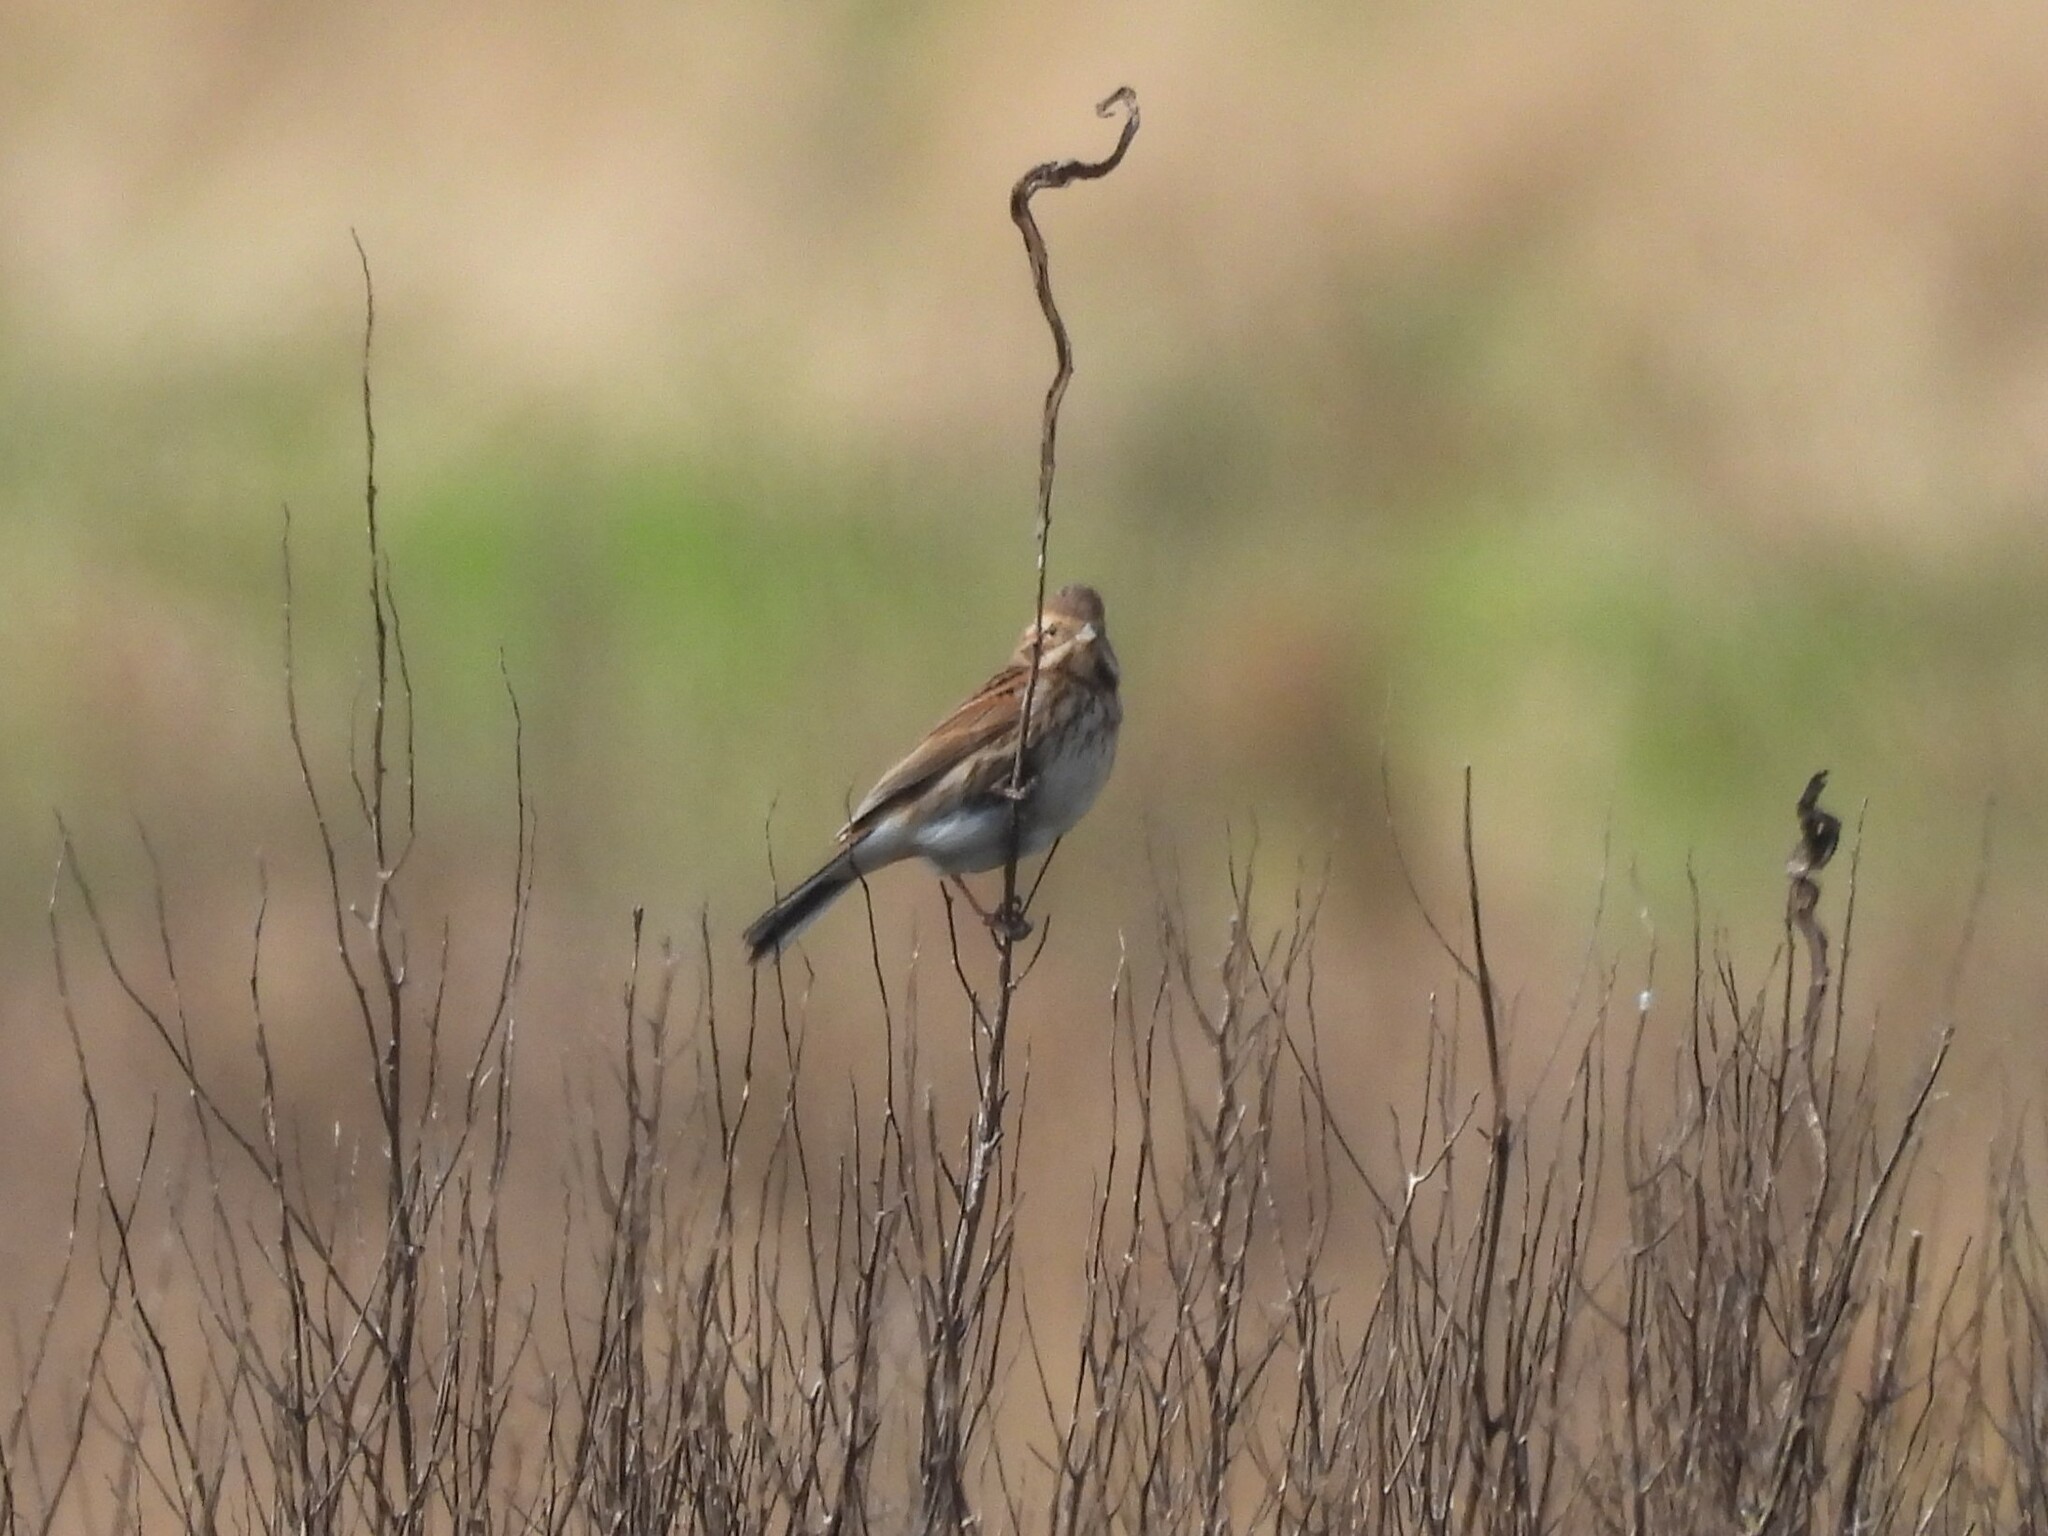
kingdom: Animalia
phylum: Chordata
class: Aves
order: Passeriformes
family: Emberizidae
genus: Emberiza
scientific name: Emberiza schoeniclus
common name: Reed bunting
